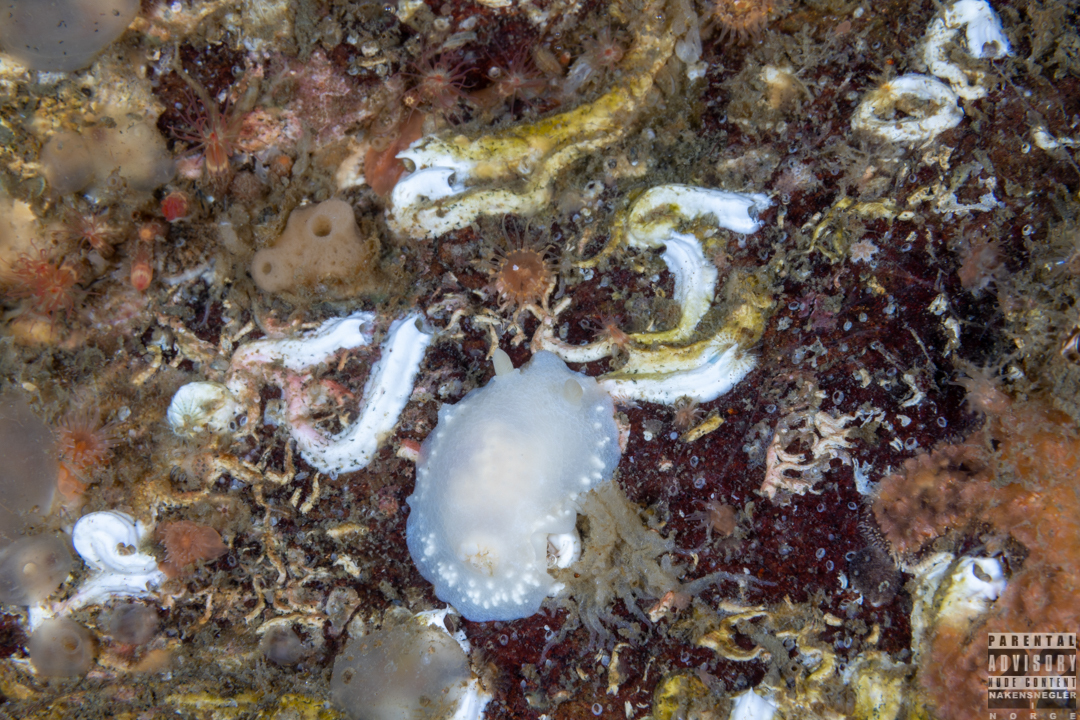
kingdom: Animalia
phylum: Mollusca
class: Gastropoda
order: Nudibranchia
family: Cadlinidae
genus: Cadlina
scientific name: Cadlina laevis
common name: White atlantic cadlina
